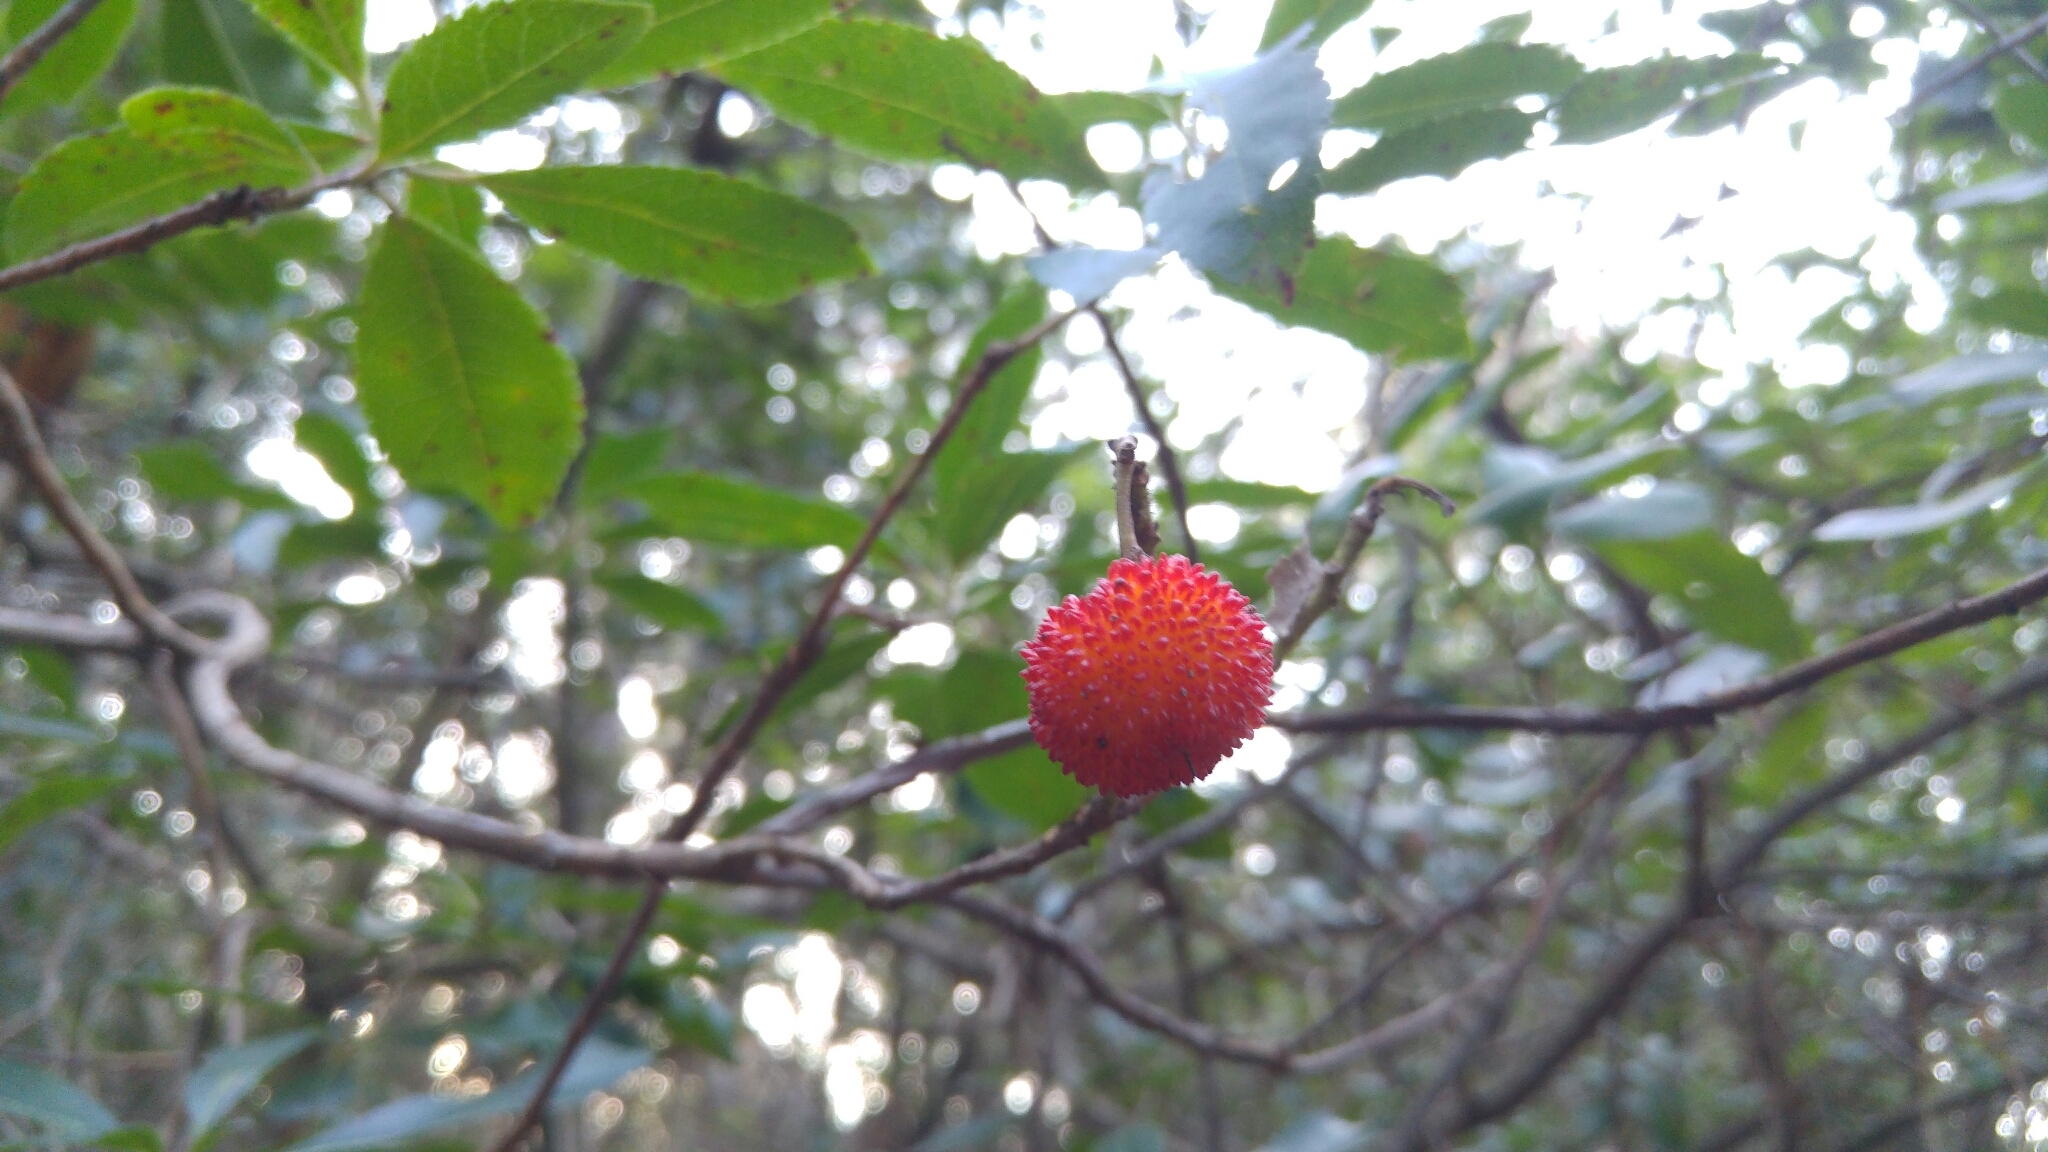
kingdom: Plantae
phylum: Tracheophyta
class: Magnoliopsida
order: Ericales
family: Ericaceae
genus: Arbutus
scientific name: Arbutus unedo
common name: Strawberry-tree
